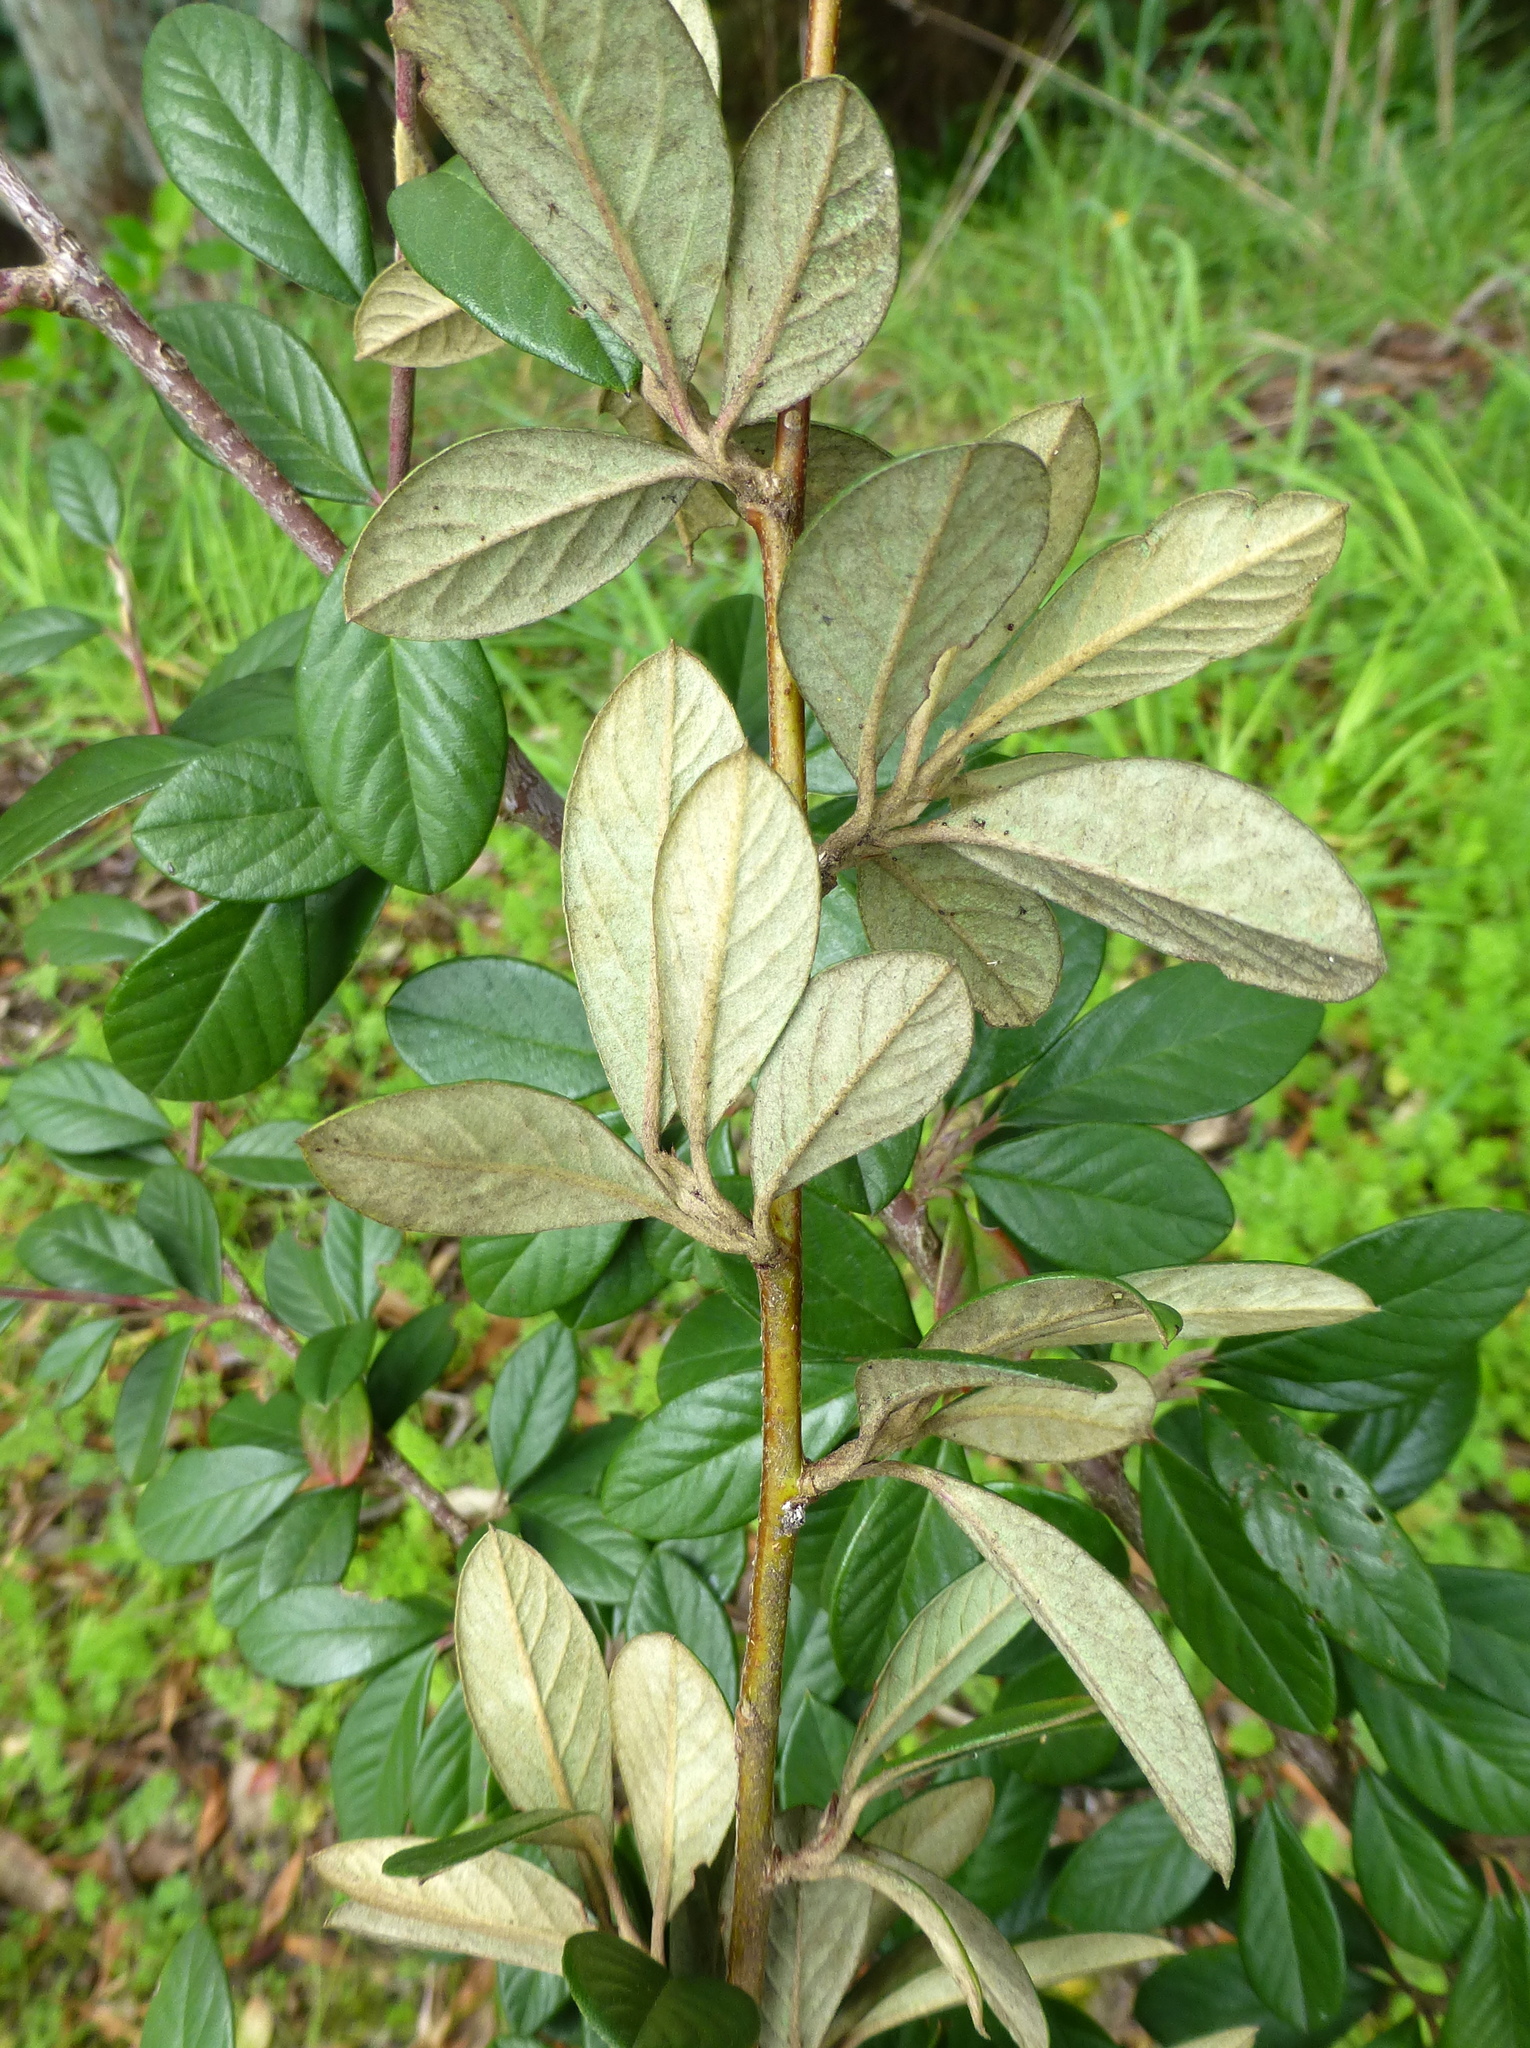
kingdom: Plantae
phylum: Tracheophyta
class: Magnoliopsida
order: Rosales
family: Rosaceae
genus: Cotoneaster
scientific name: Cotoneaster coriaceus
